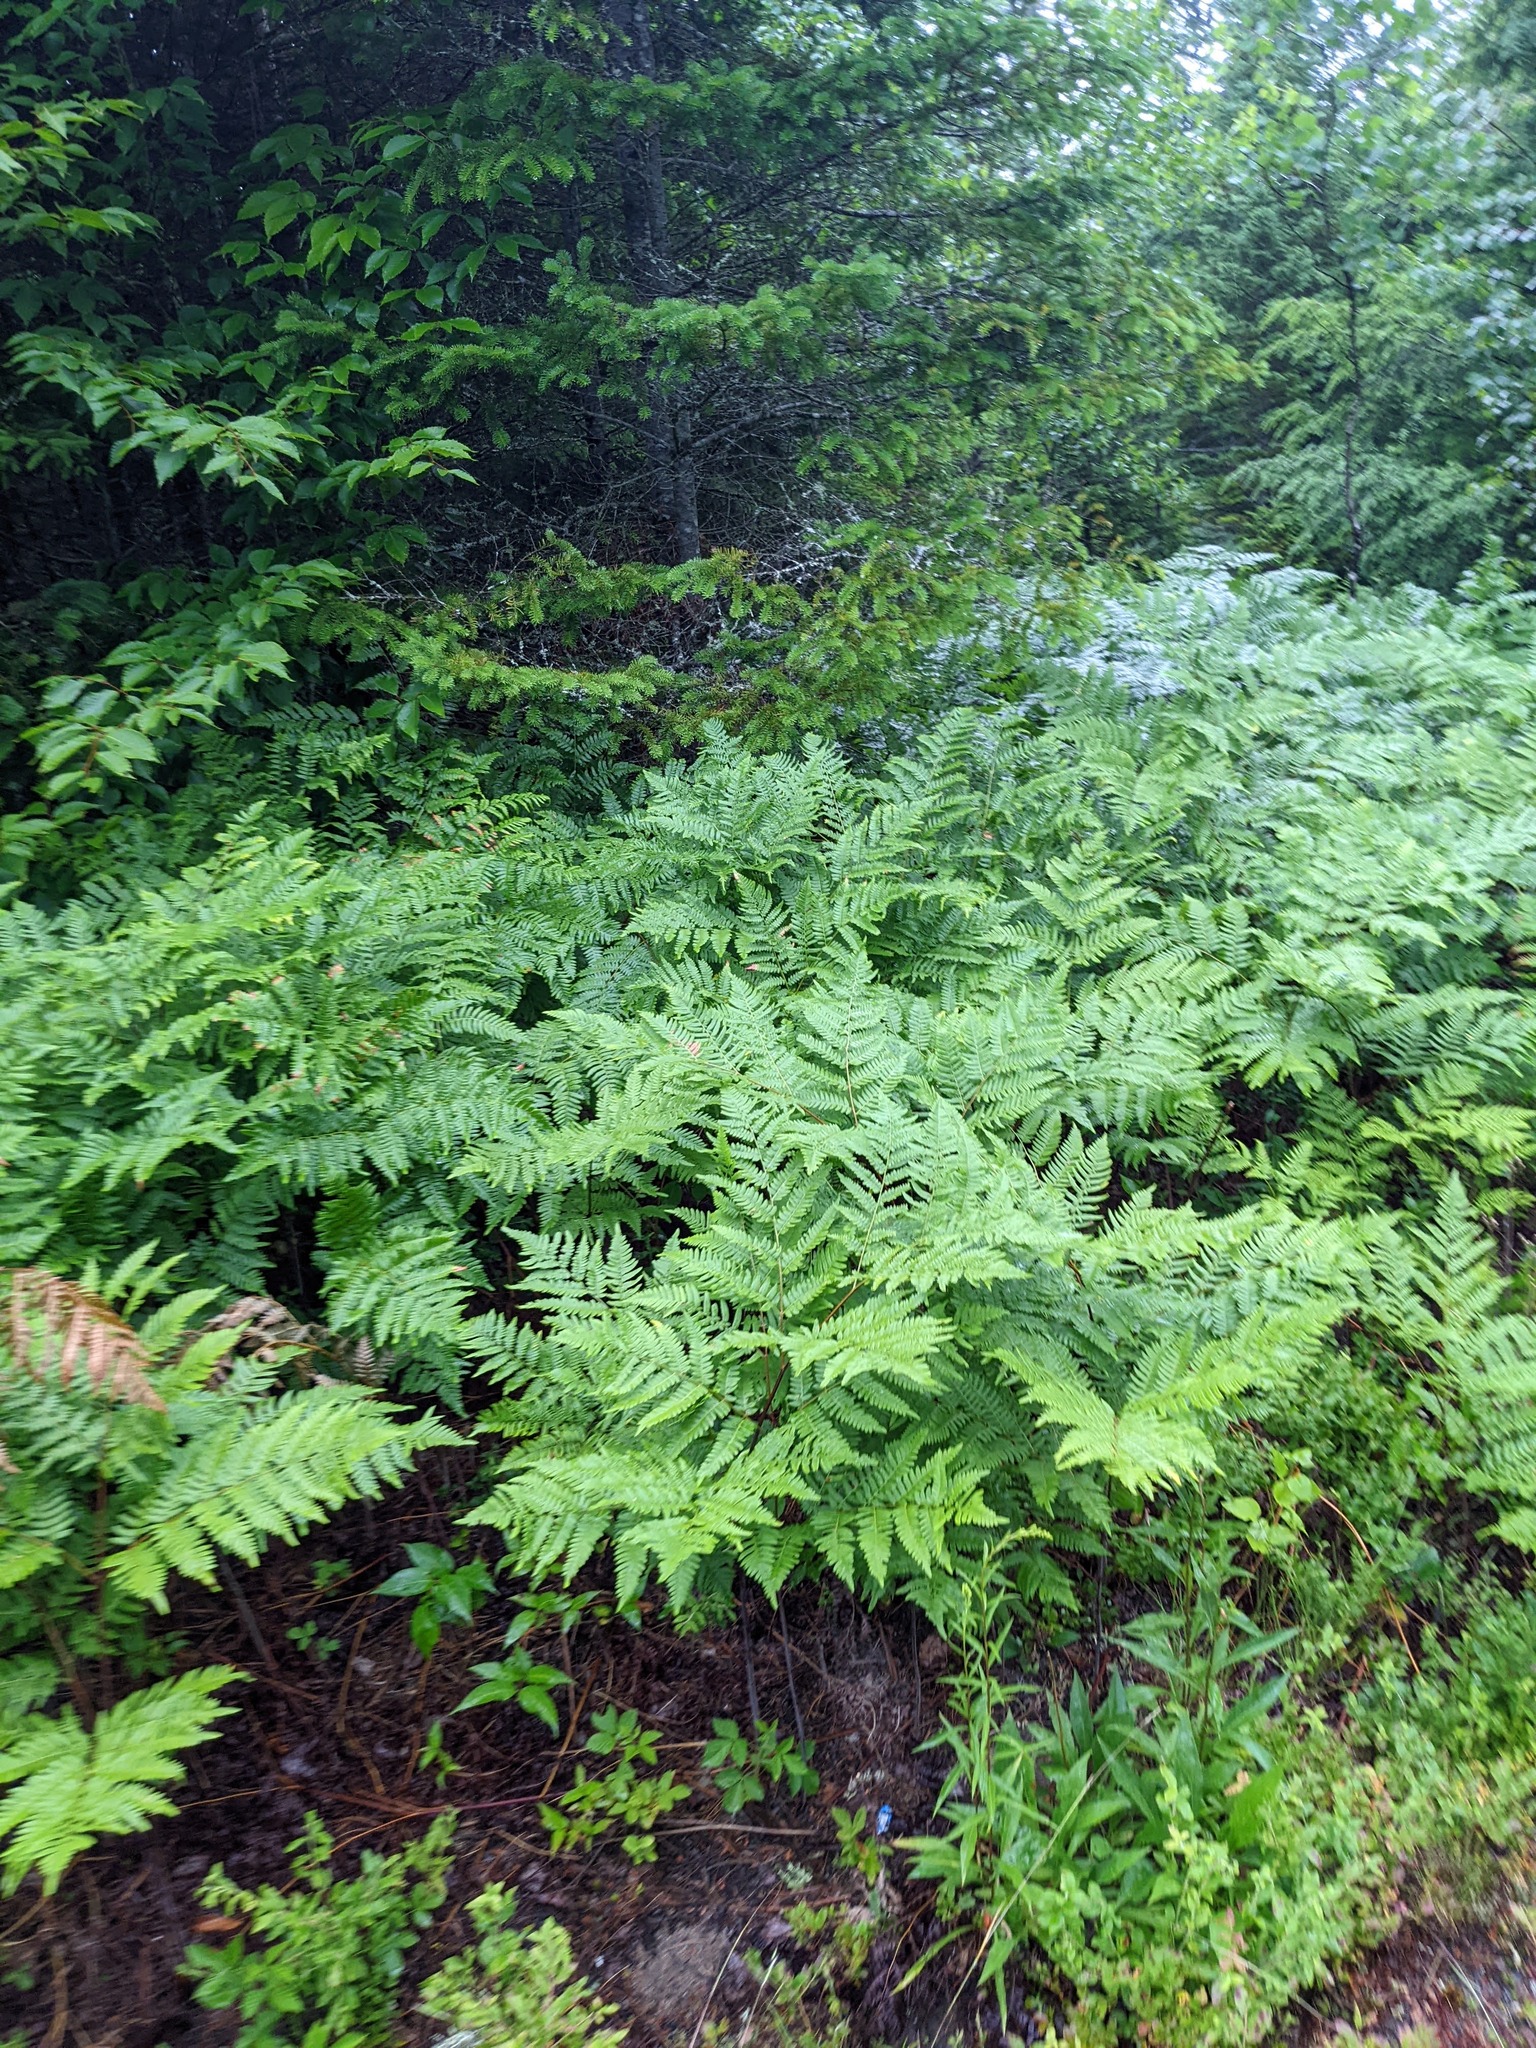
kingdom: Plantae
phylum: Tracheophyta
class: Polypodiopsida
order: Polypodiales
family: Dennstaedtiaceae
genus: Pteridium
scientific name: Pteridium aquilinum
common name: Bracken
